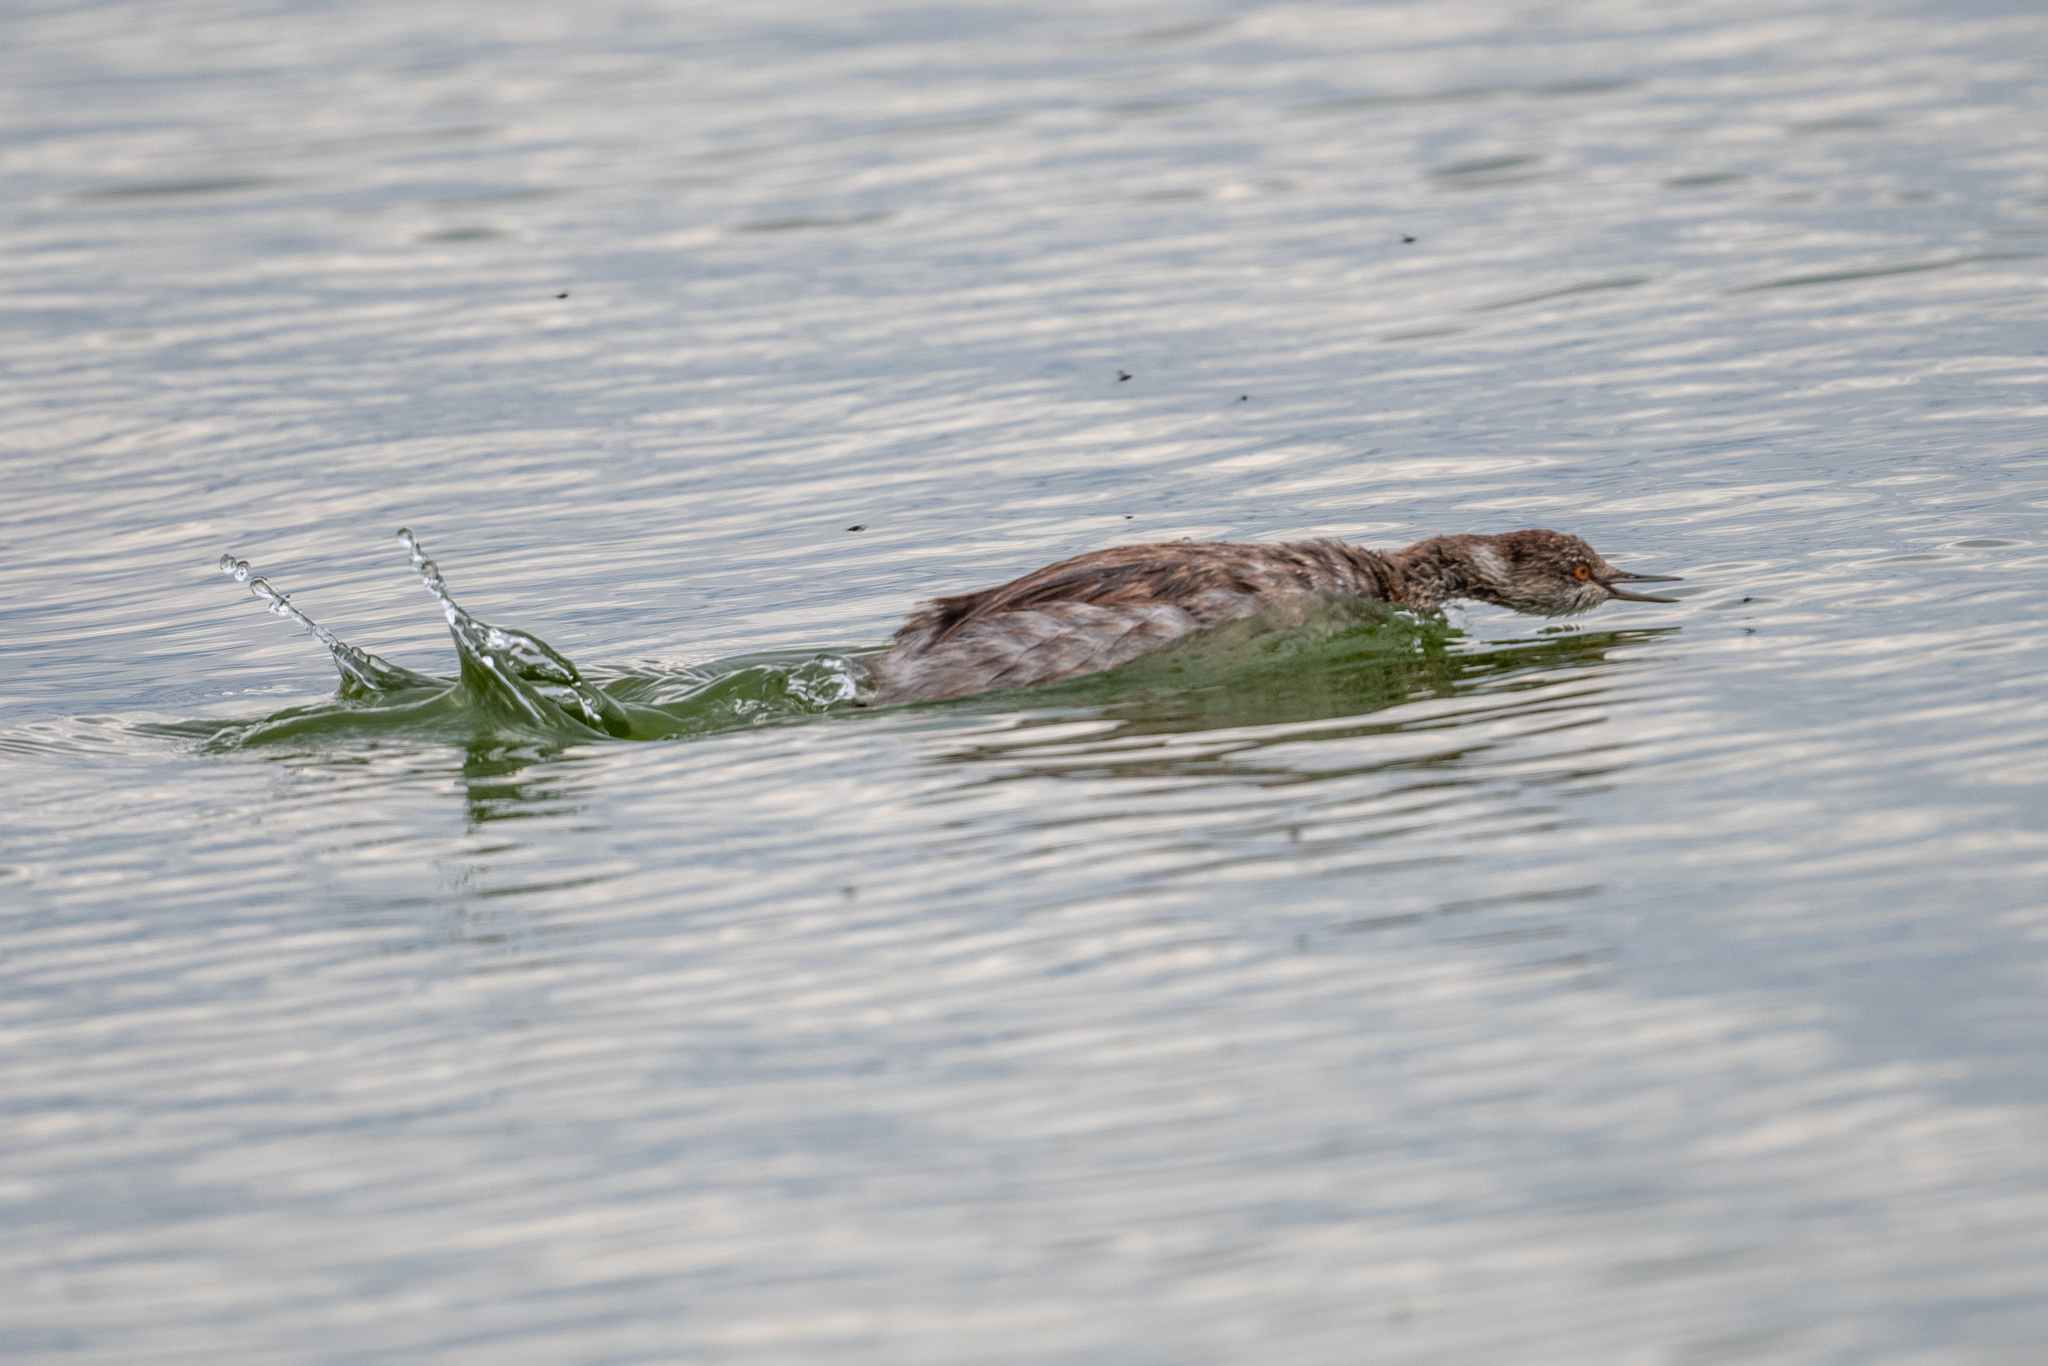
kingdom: Animalia
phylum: Chordata
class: Aves
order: Podicipediformes
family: Podicipedidae
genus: Podiceps
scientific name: Podiceps nigricollis
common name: Black-necked grebe
